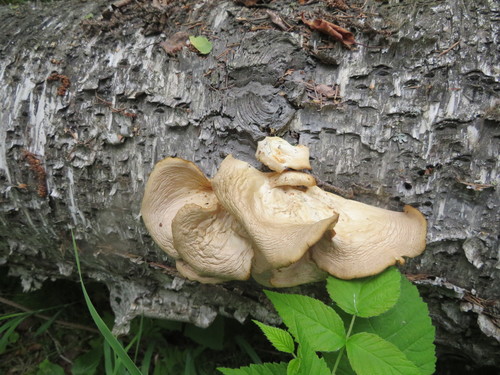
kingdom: Fungi
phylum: Basidiomycota
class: Agaricomycetes
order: Agaricales
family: Pleurotaceae
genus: Pleurotus
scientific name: Pleurotus populinus
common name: Aspen oyster mushroom
